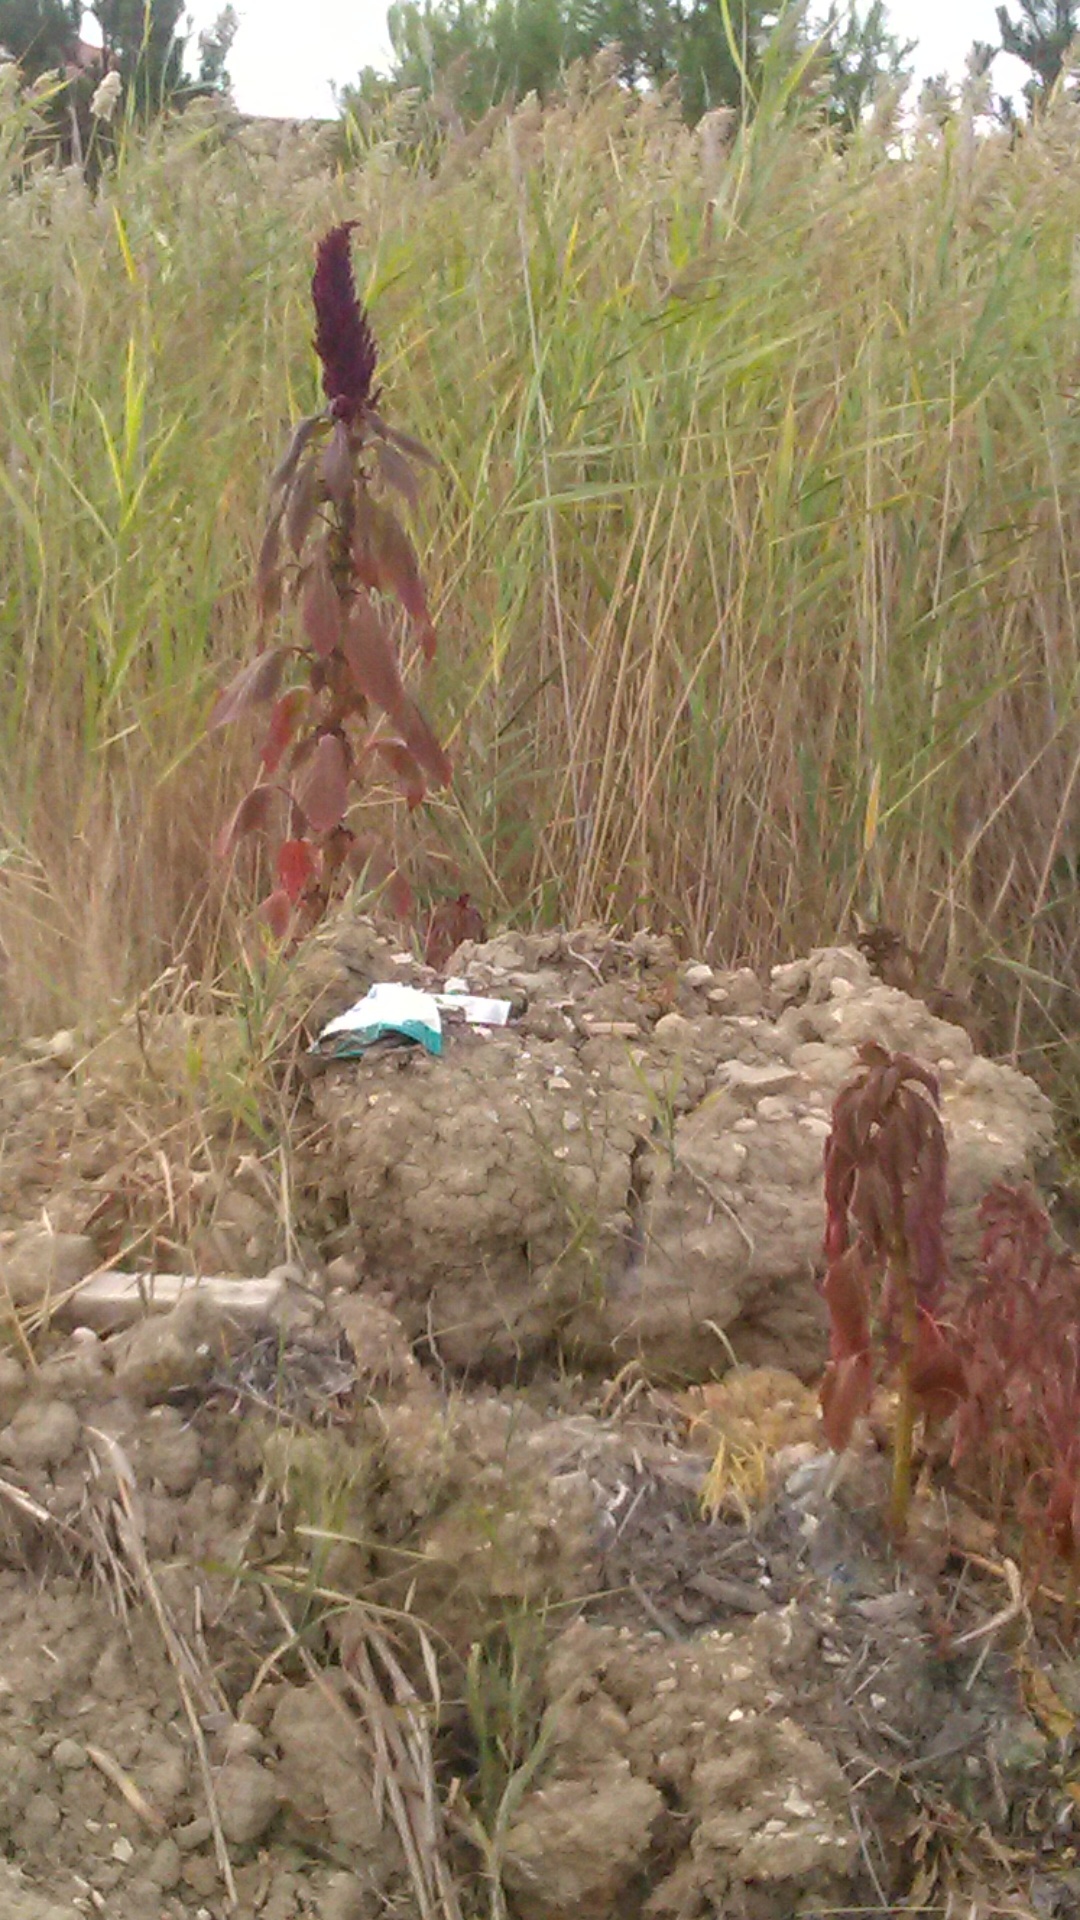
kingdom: Plantae
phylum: Tracheophyta
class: Magnoliopsida
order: Caryophyllales
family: Amaranthaceae
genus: Amaranthus
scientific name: Amaranthus cruentus
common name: Purple amaranth
